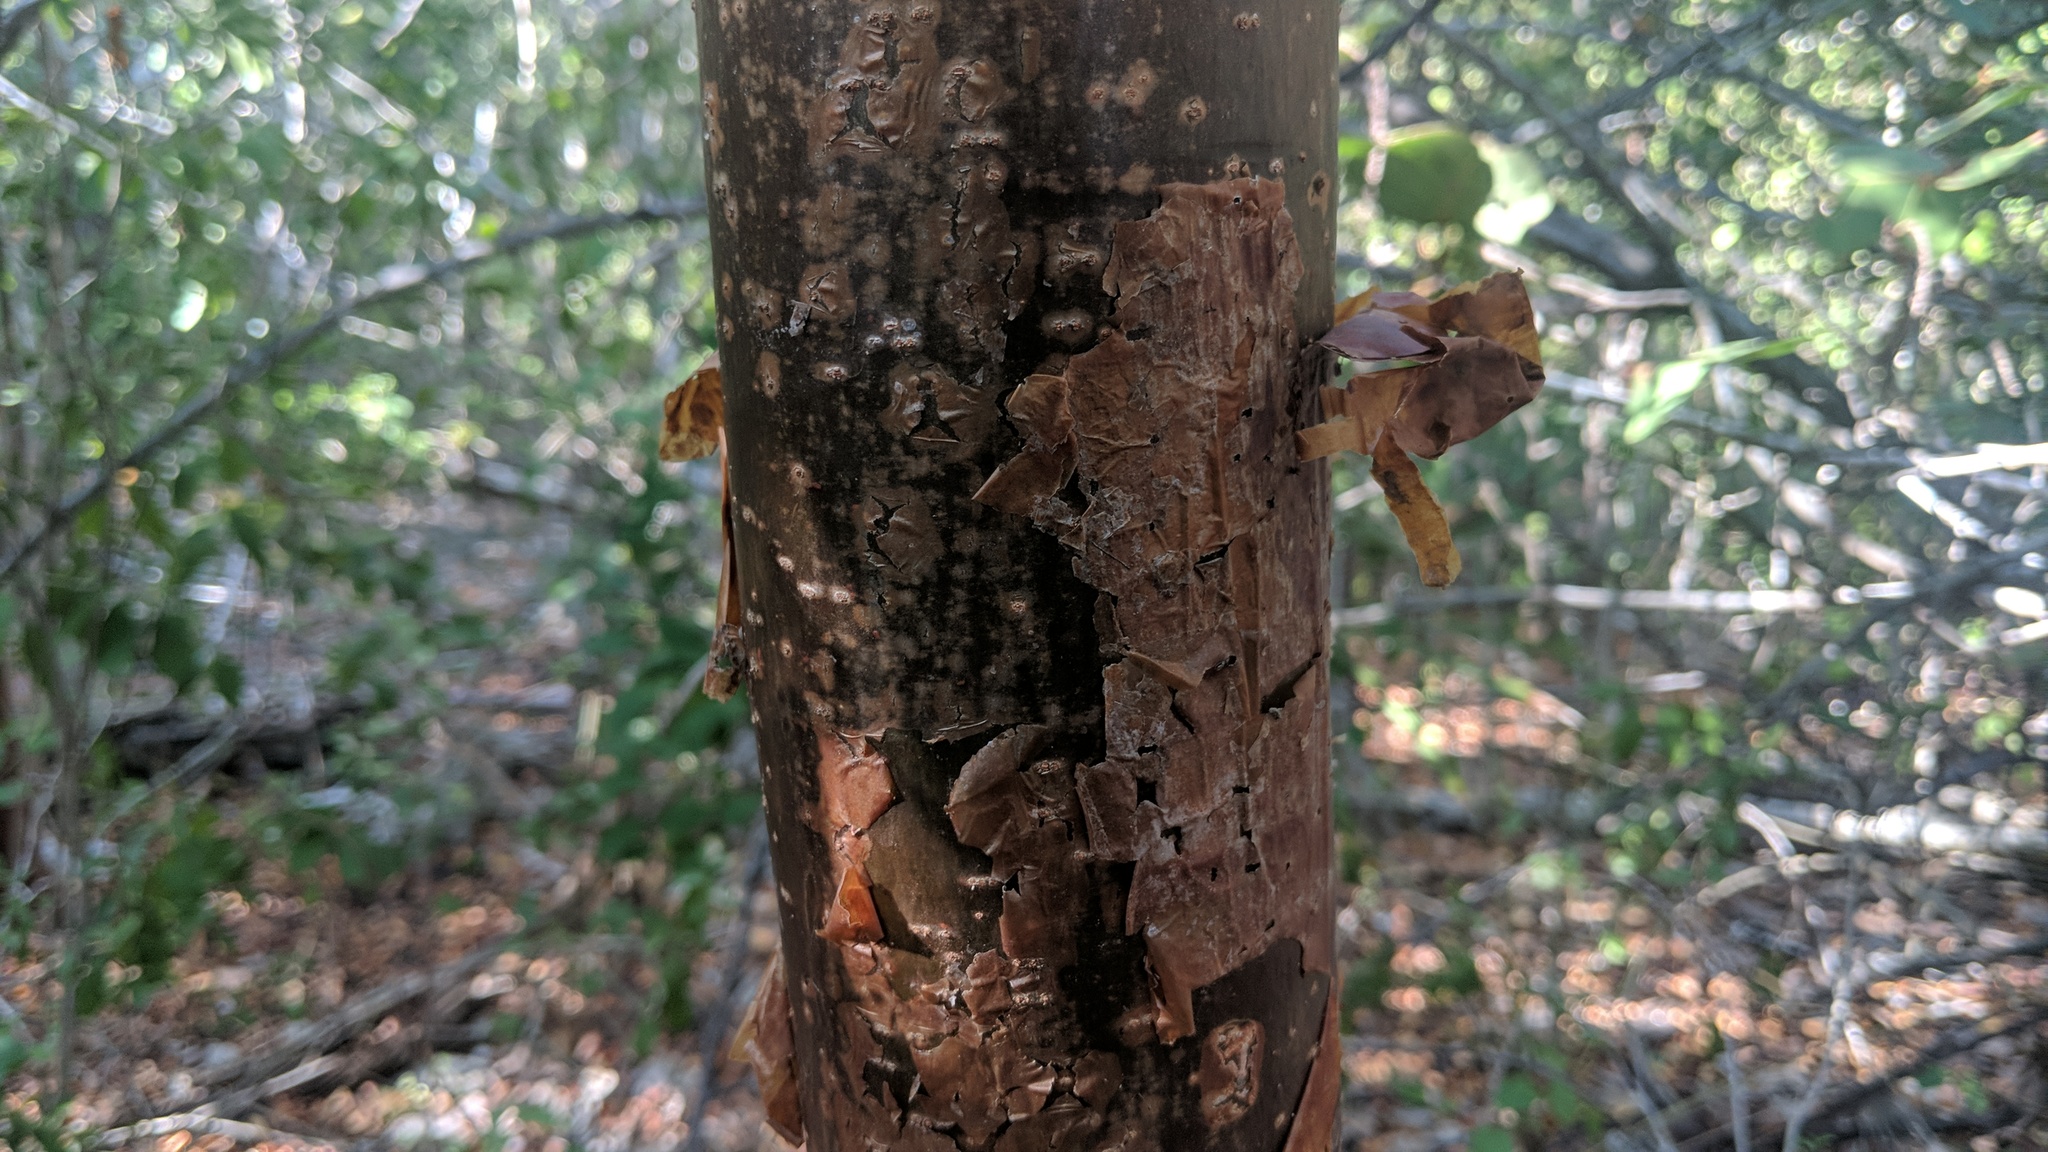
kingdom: Plantae
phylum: Tracheophyta
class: Magnoliopsida
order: Sapindales
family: Burseraceae
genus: Bursera
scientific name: Bursera simaruba
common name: Turpentine tree
